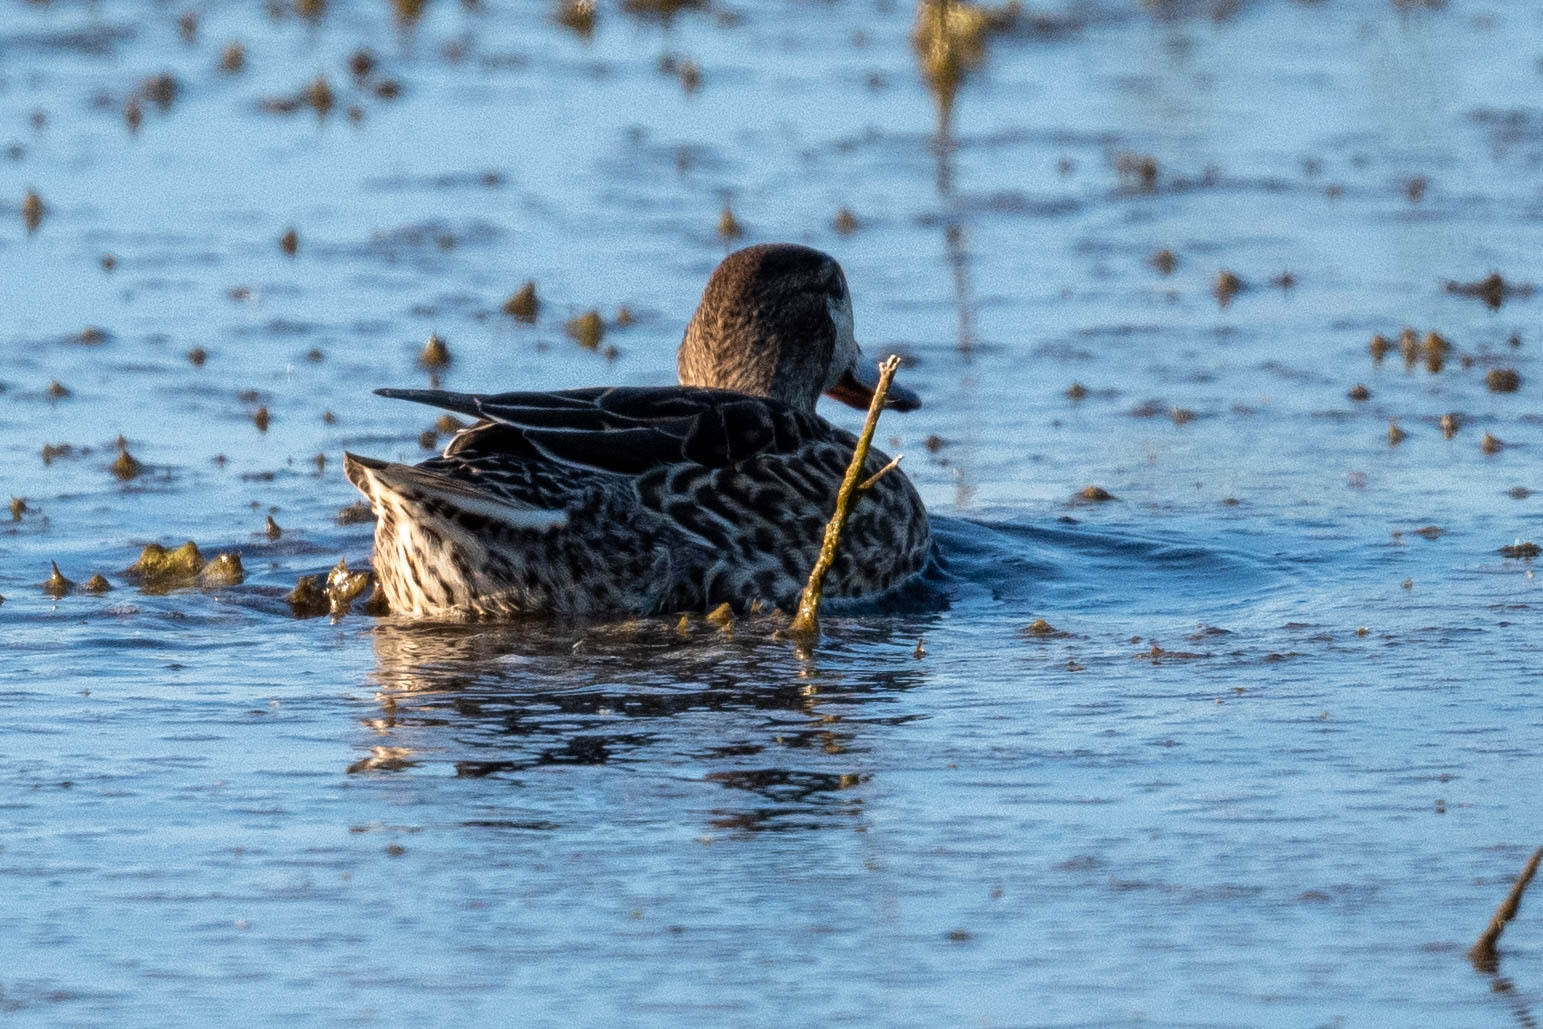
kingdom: Animalia
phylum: Chordata
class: Aves
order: Anseriformes
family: Anatidae
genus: Anas
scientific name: Anas crecca
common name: Eurasian teal
